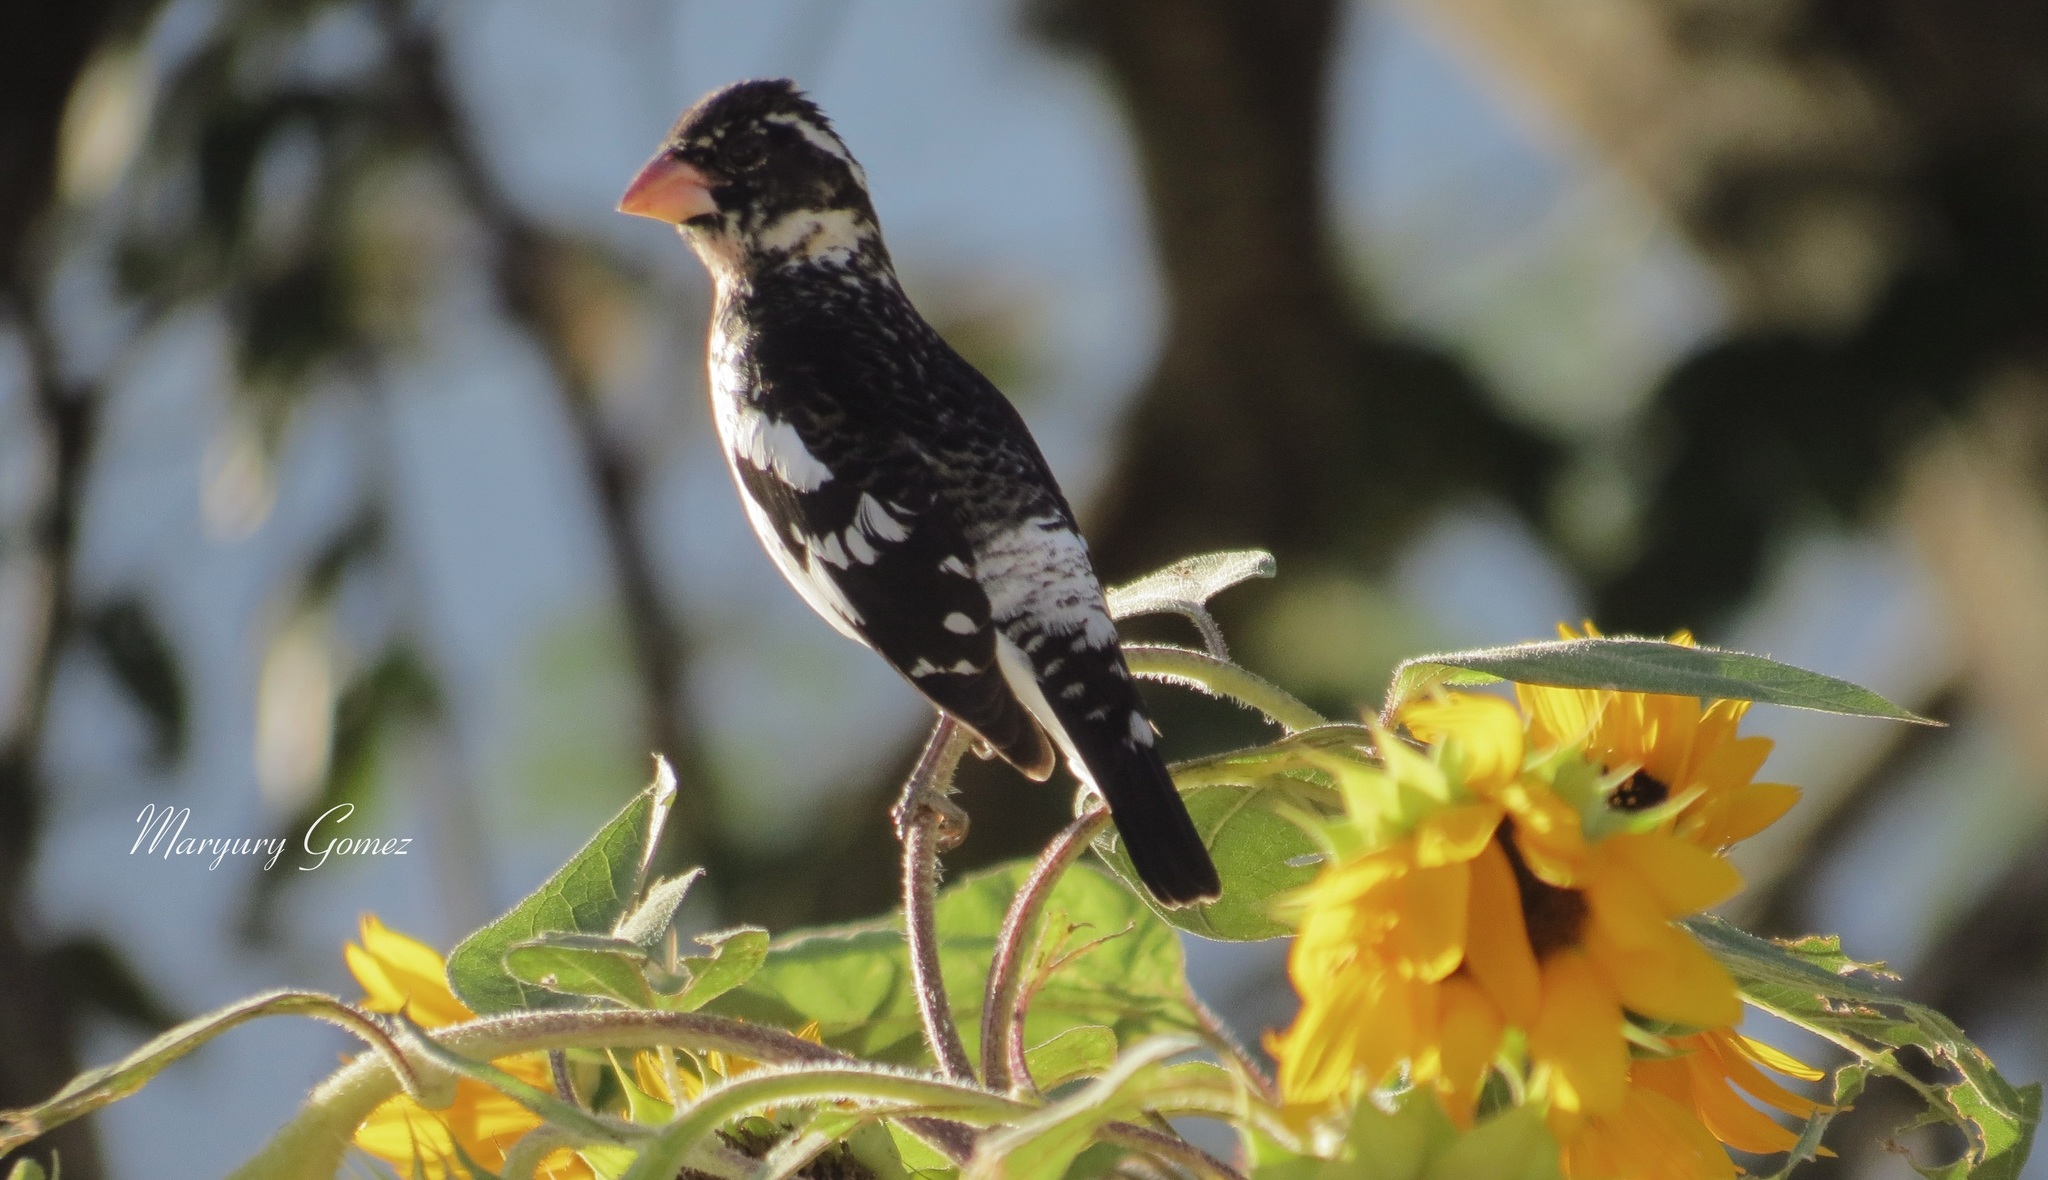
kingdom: Animalia
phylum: Chordata
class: Aves
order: Passeriformes
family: Cardinalidae
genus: Pheucticus
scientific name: Pheucticus ludovicianus
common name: Rose-breasted grosbeak
